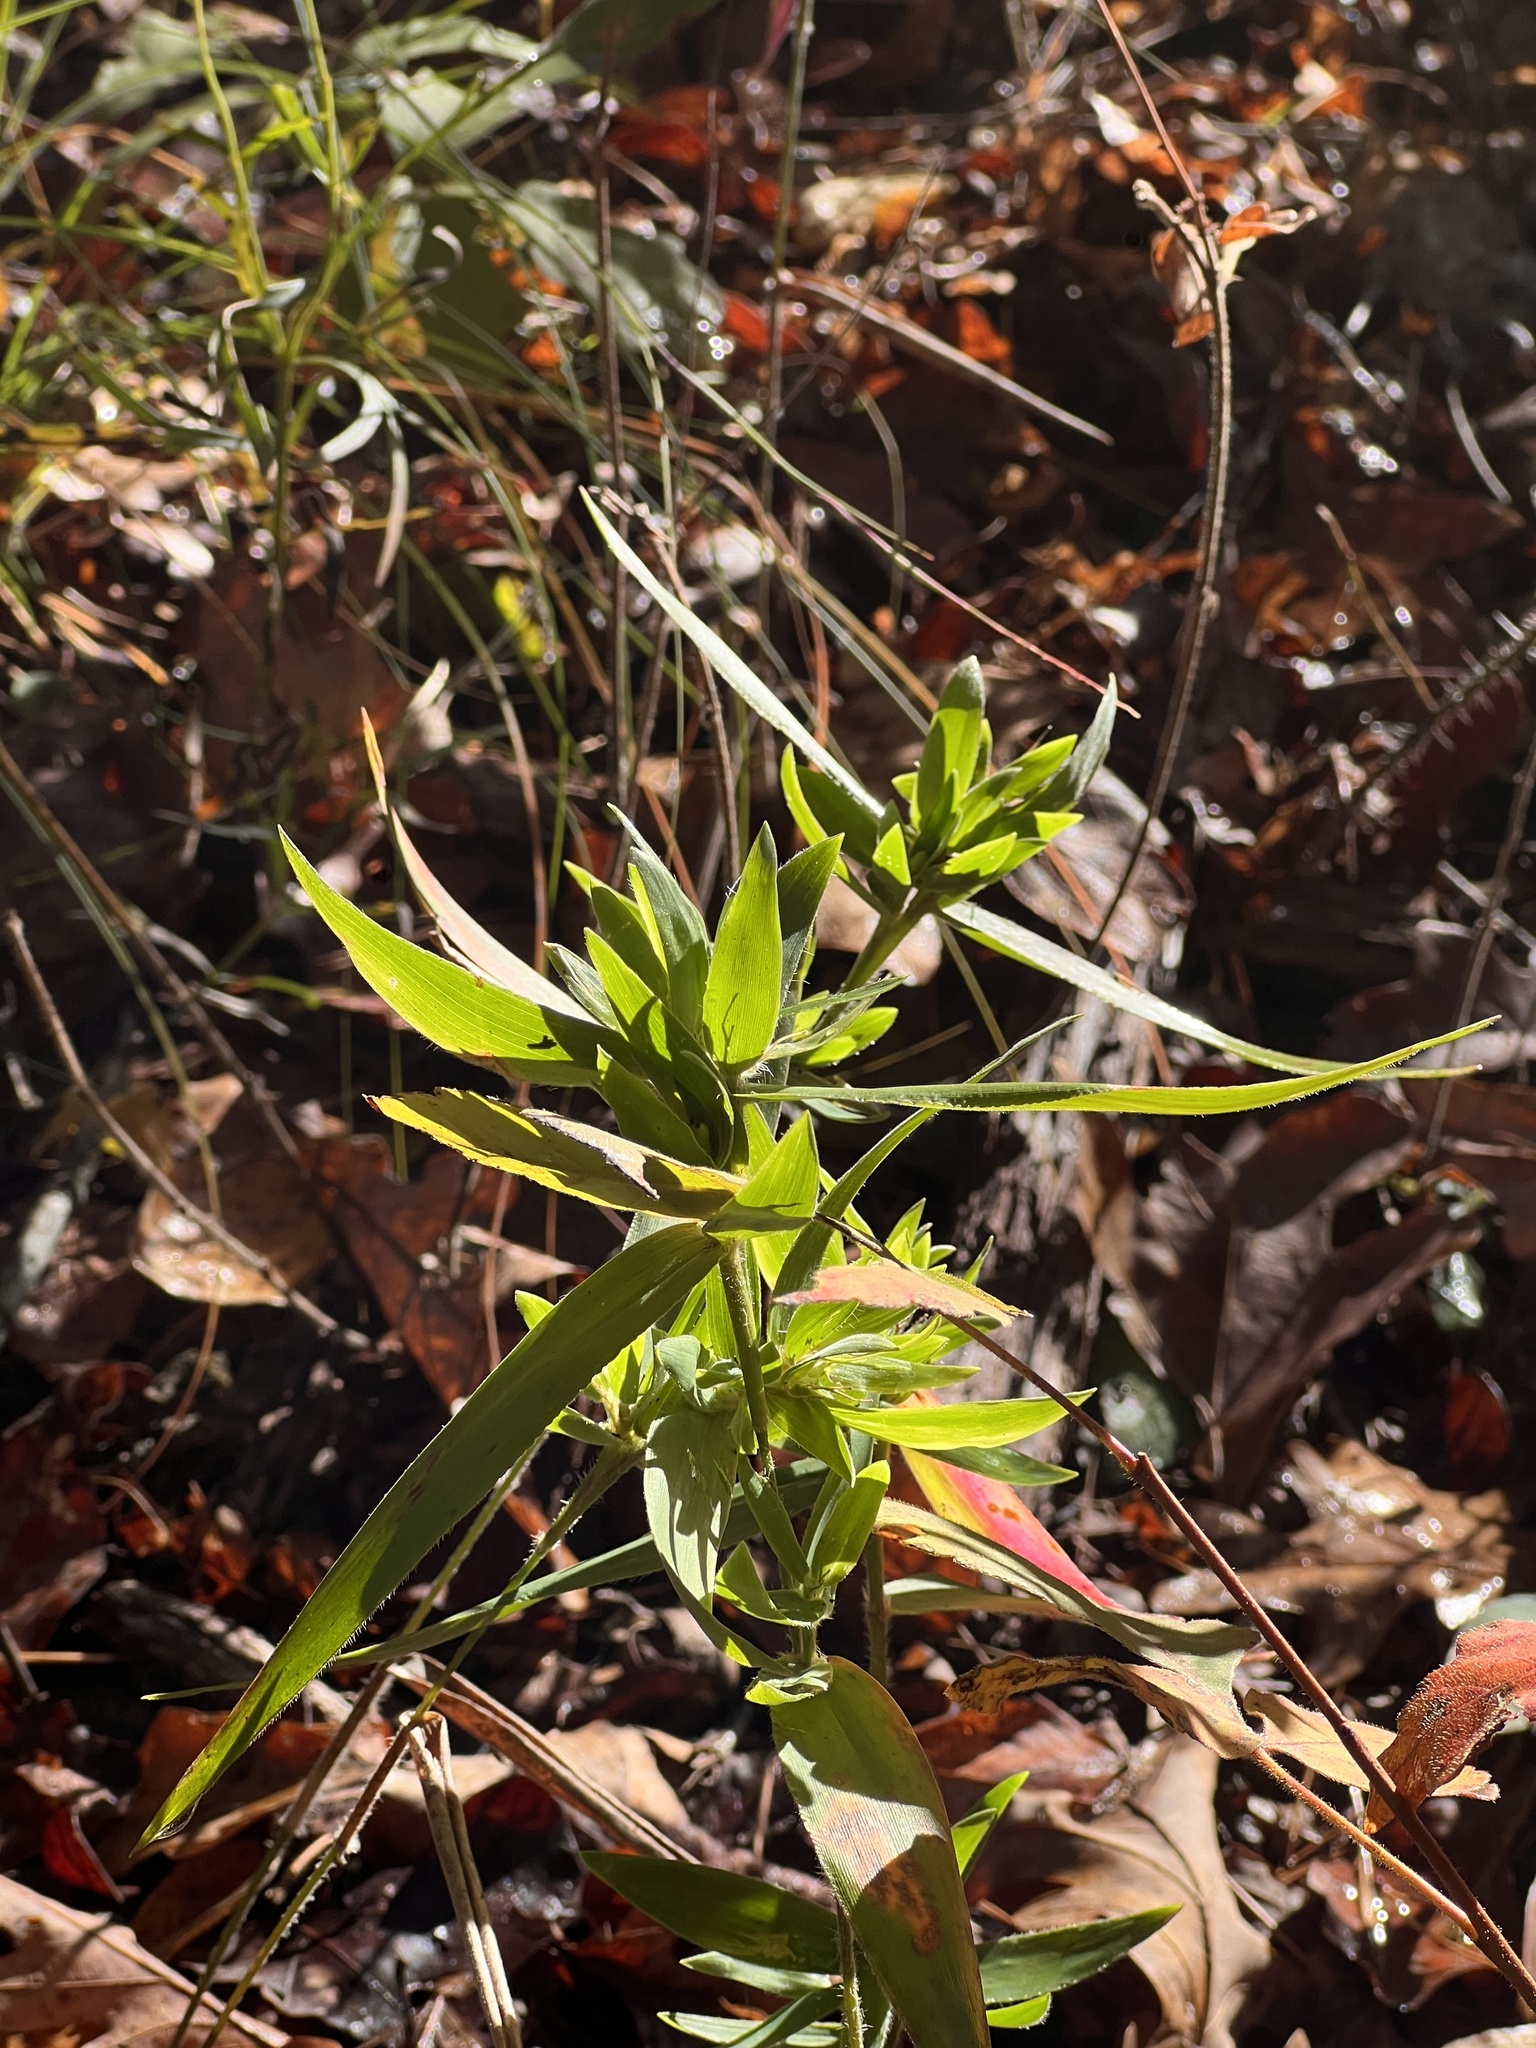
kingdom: Plantae
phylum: Tracheophyta
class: Liliopsida
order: Poales
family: Poaceae
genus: Dichanthelium
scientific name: Dichanthelium ravenelii
